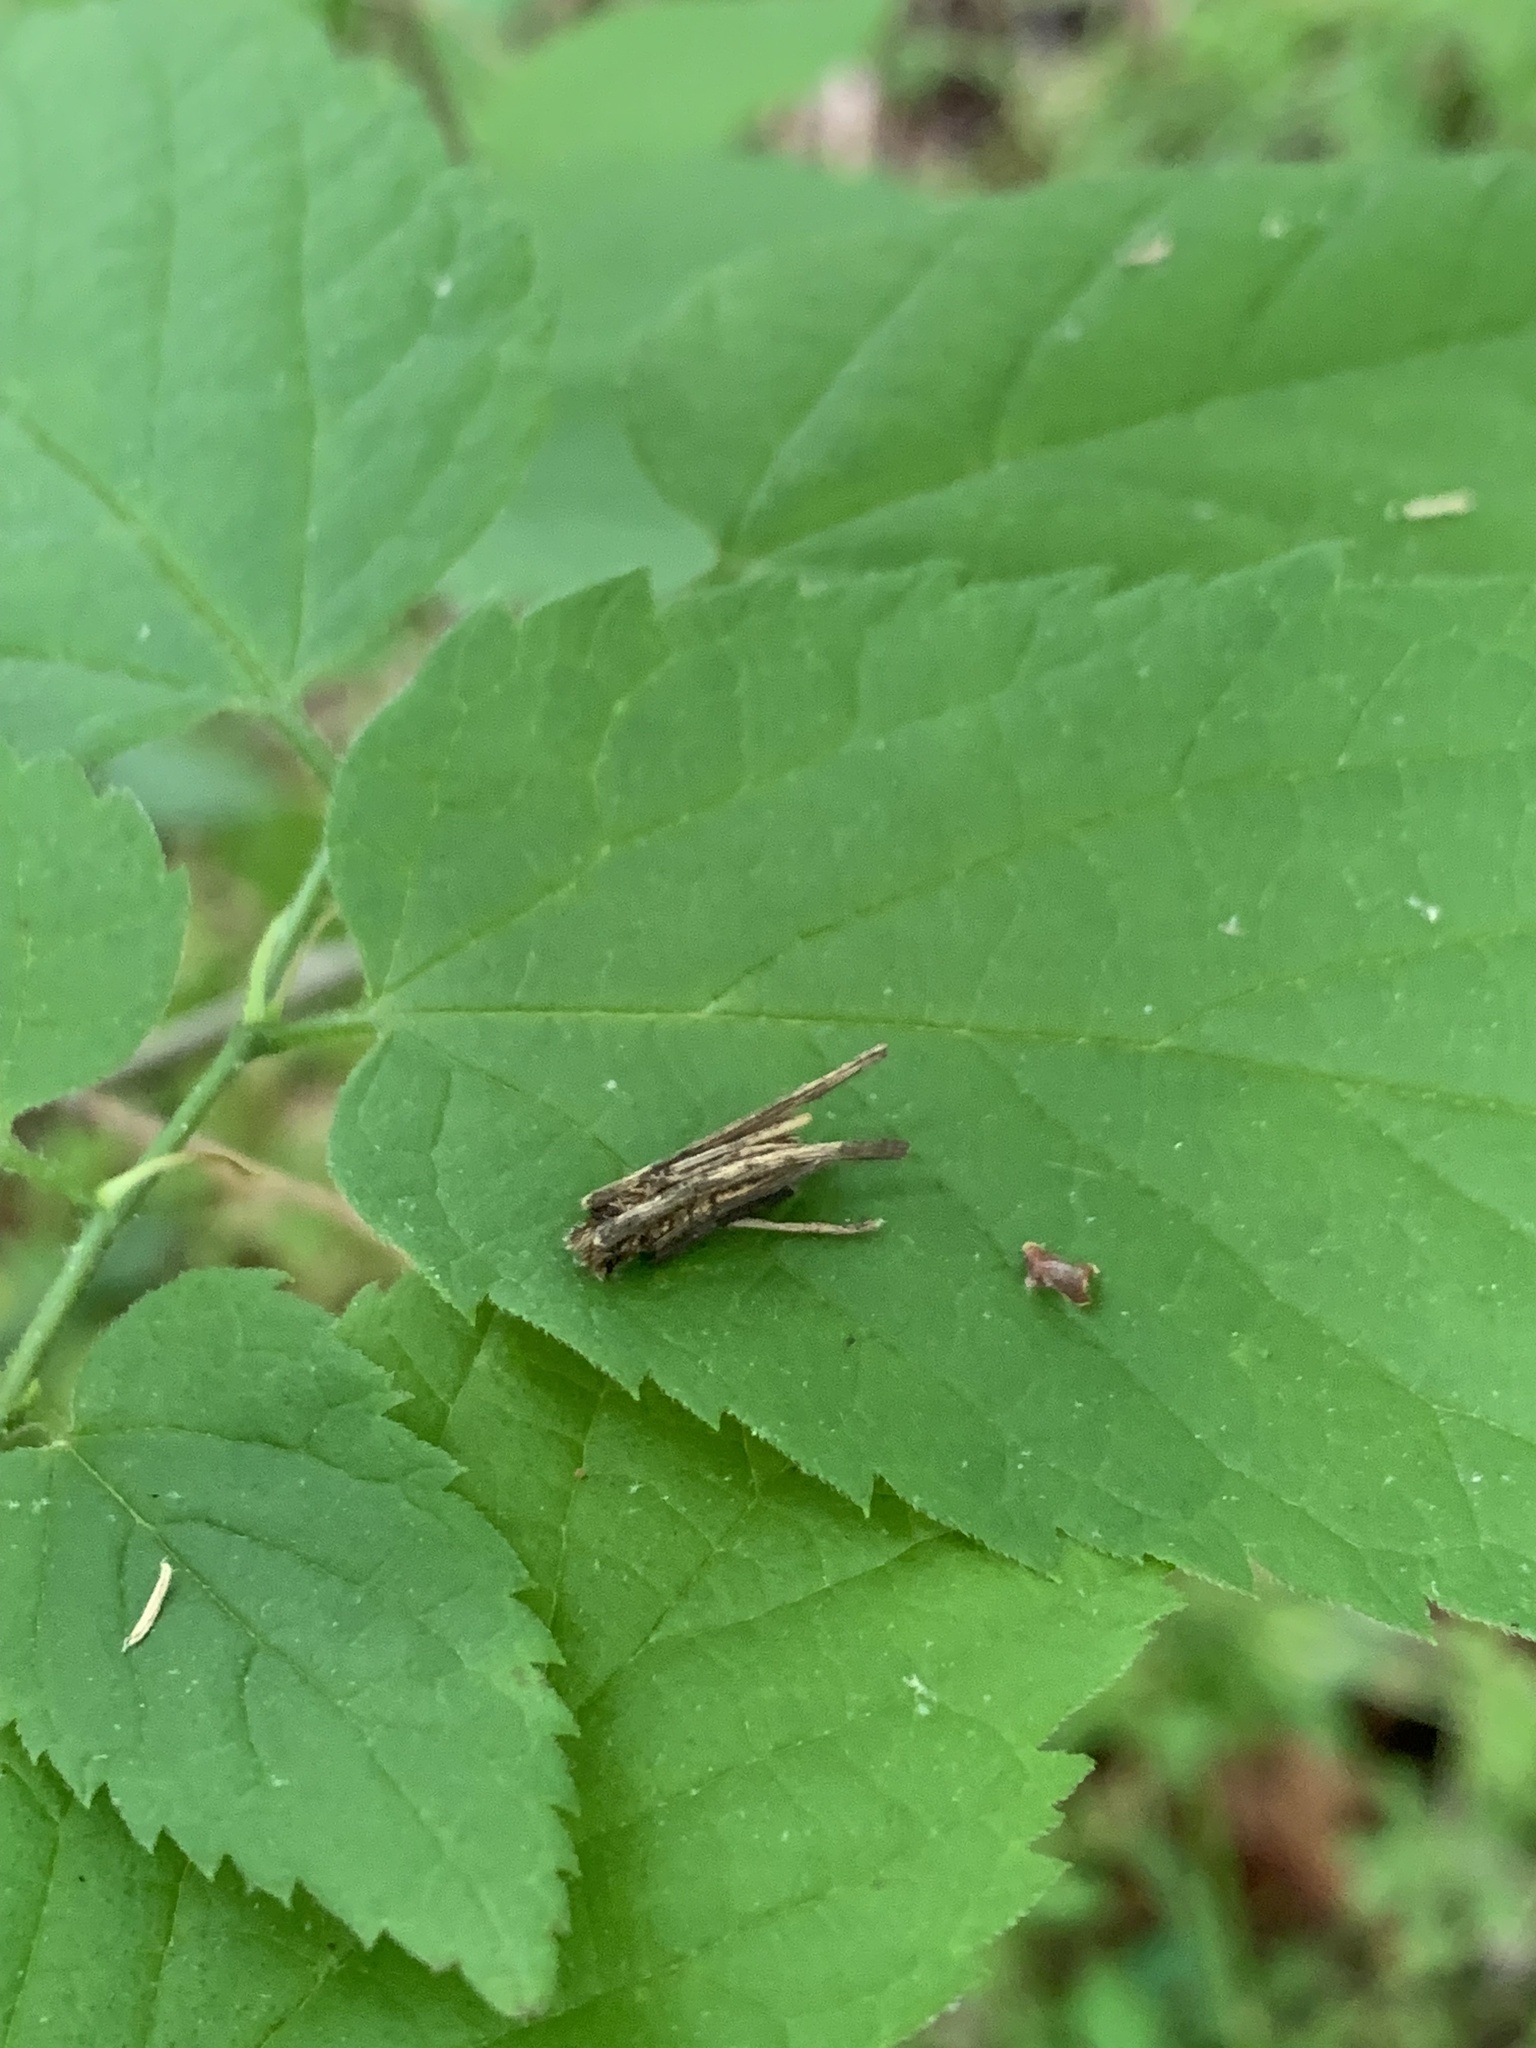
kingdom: Animalia
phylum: Arthropoda
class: Insecta
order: Lepidoptera
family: Psychidae
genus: Psyche
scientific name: Psyche casta
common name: Common sweep
